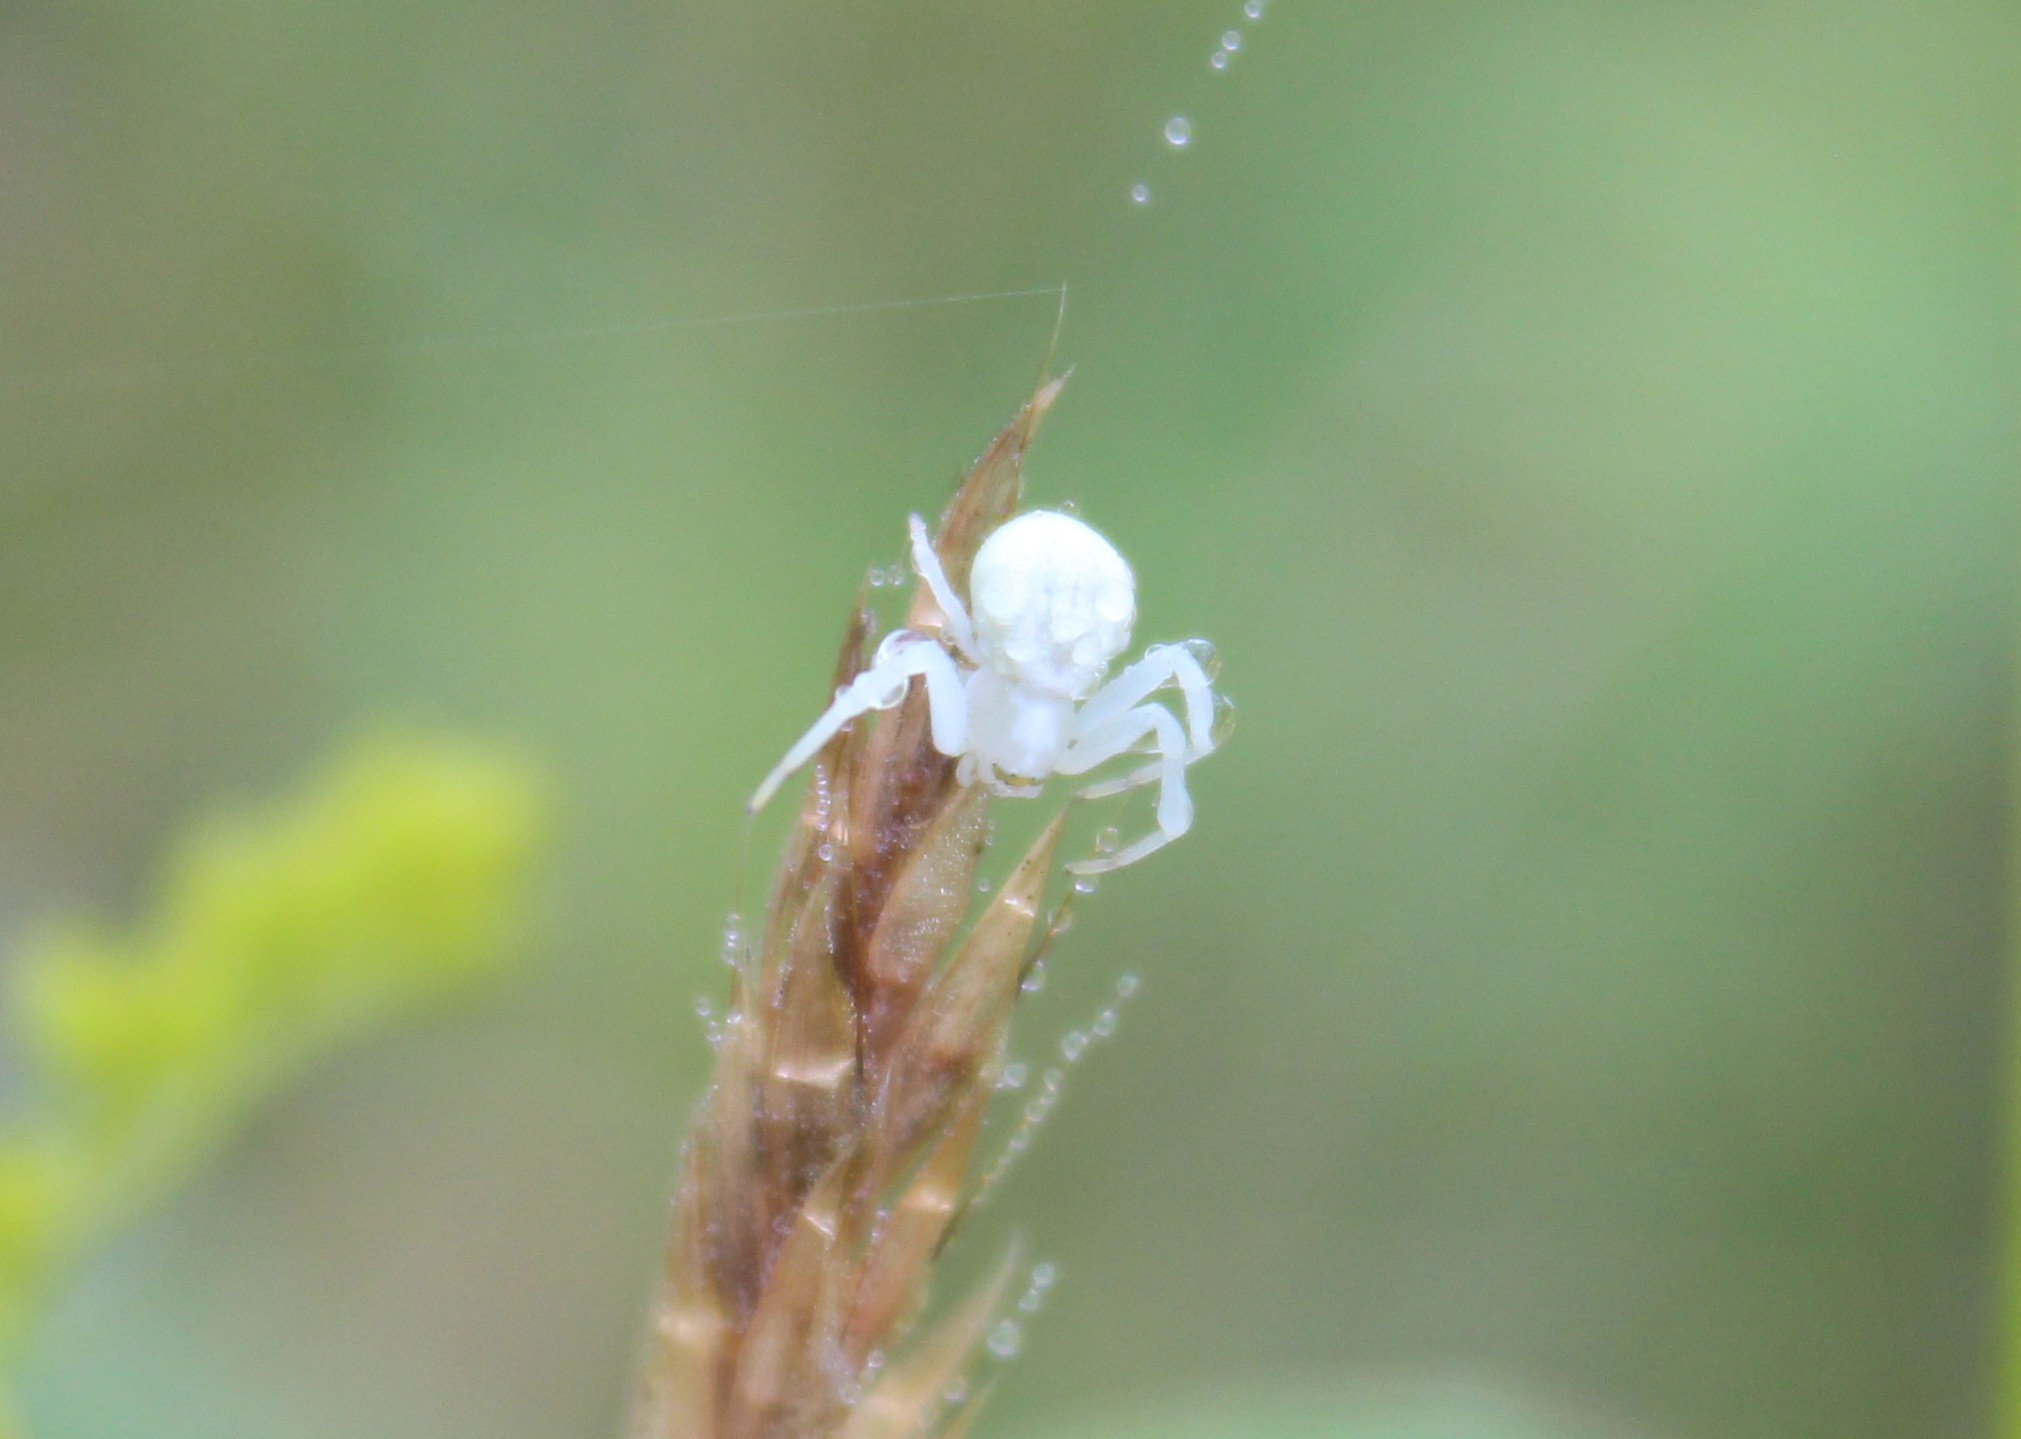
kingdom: Animalia
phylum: Arthropoda
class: Arachnida
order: Araneae
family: Thomisidae
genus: Misumena
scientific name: Misumena vatia
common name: Goldenrod crab spider
